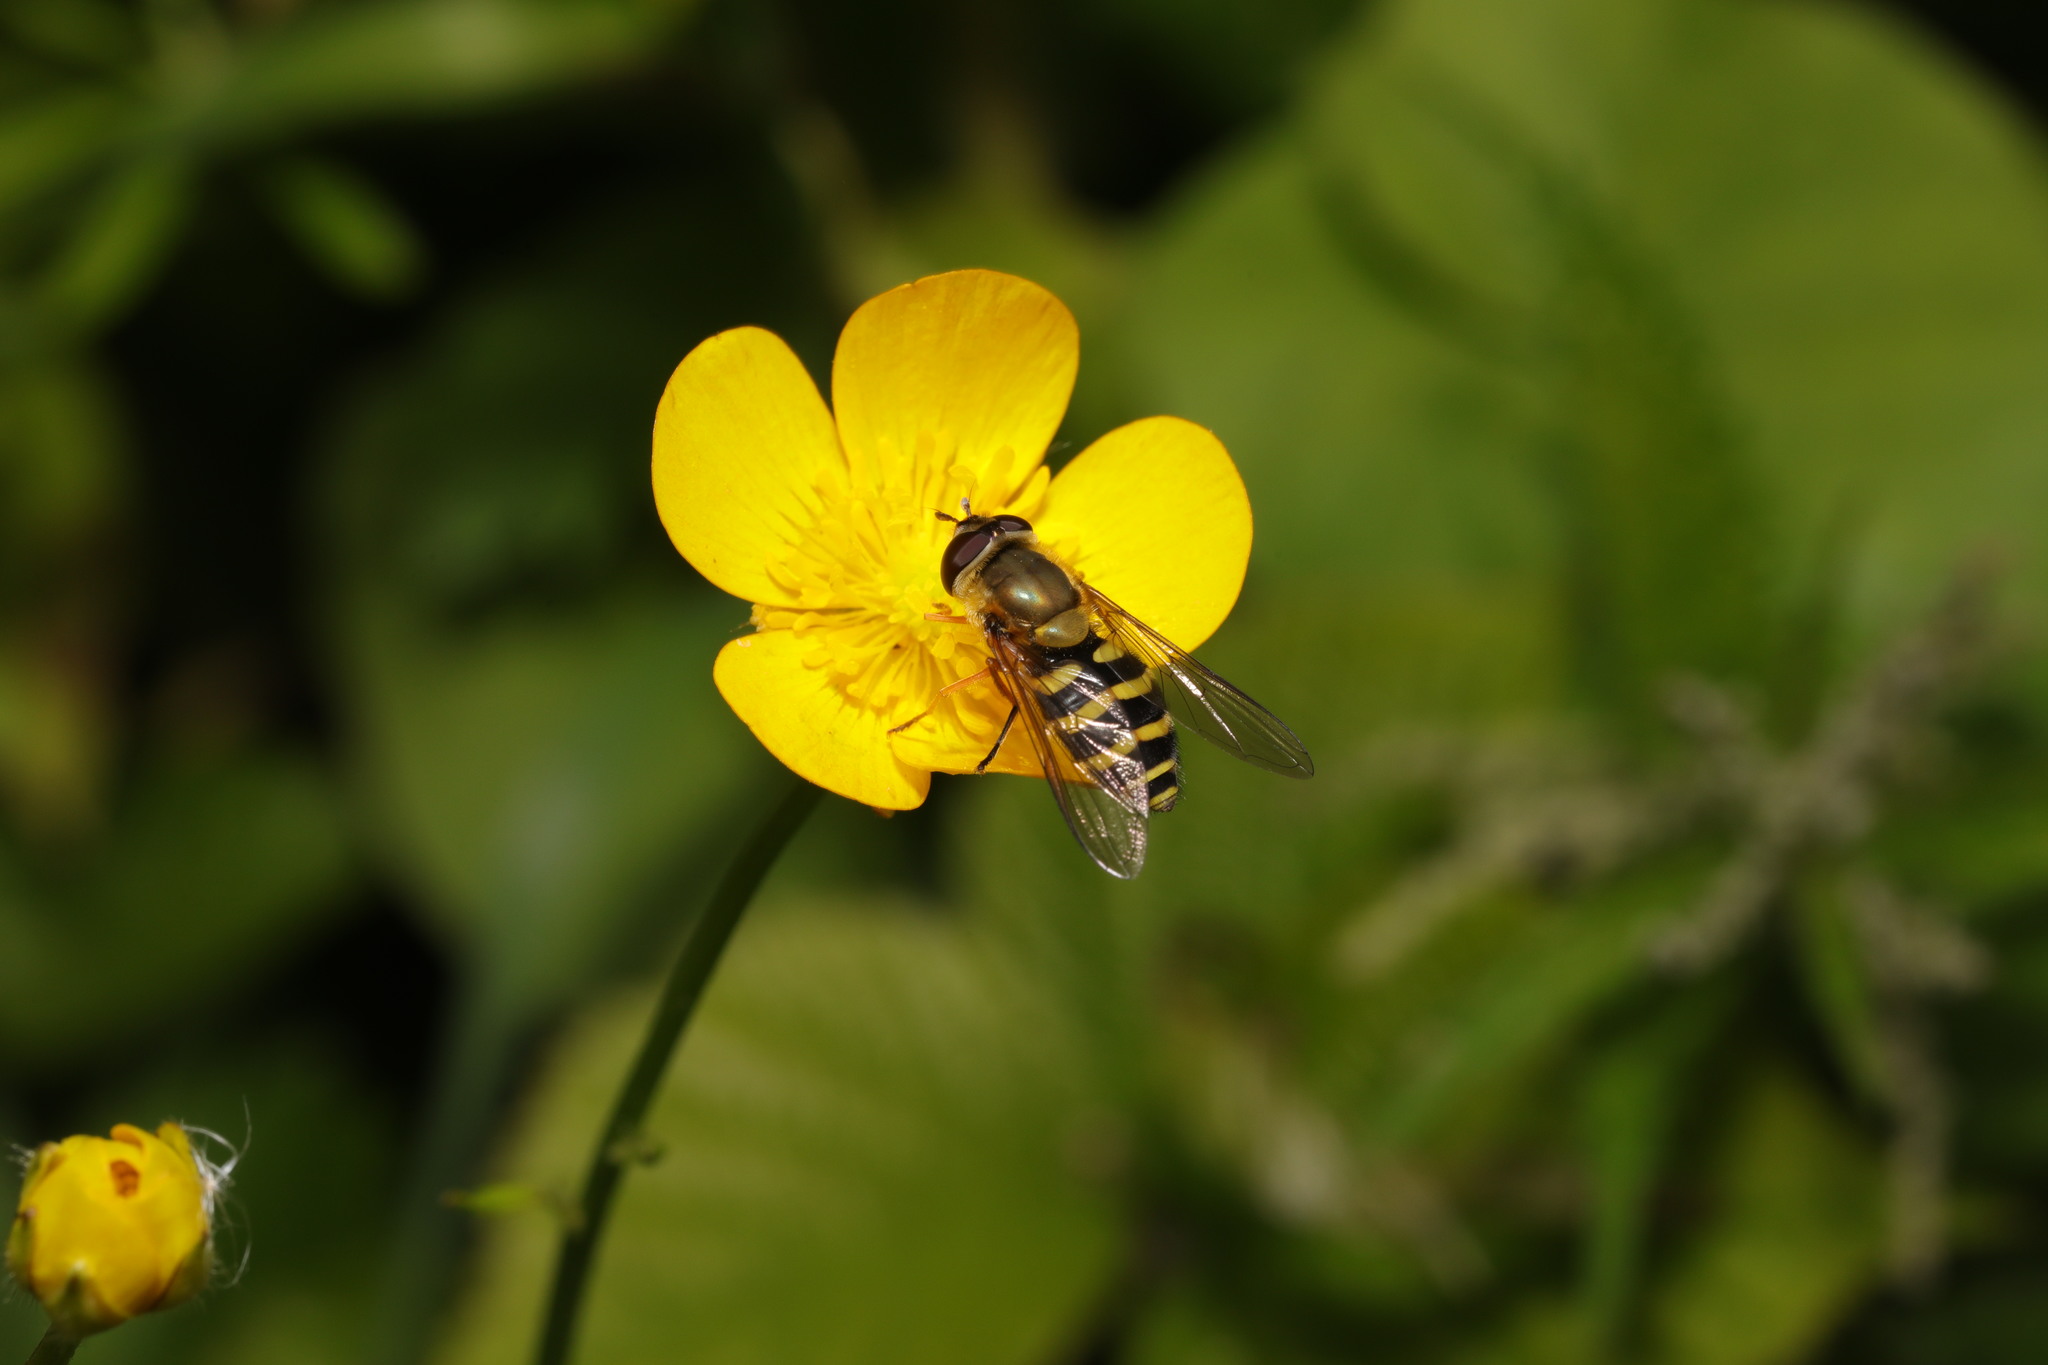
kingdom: Animalia
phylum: Arthropoda
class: Insecta
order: Diptera
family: Syrphidae
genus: Syrphus
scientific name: Syrphus
